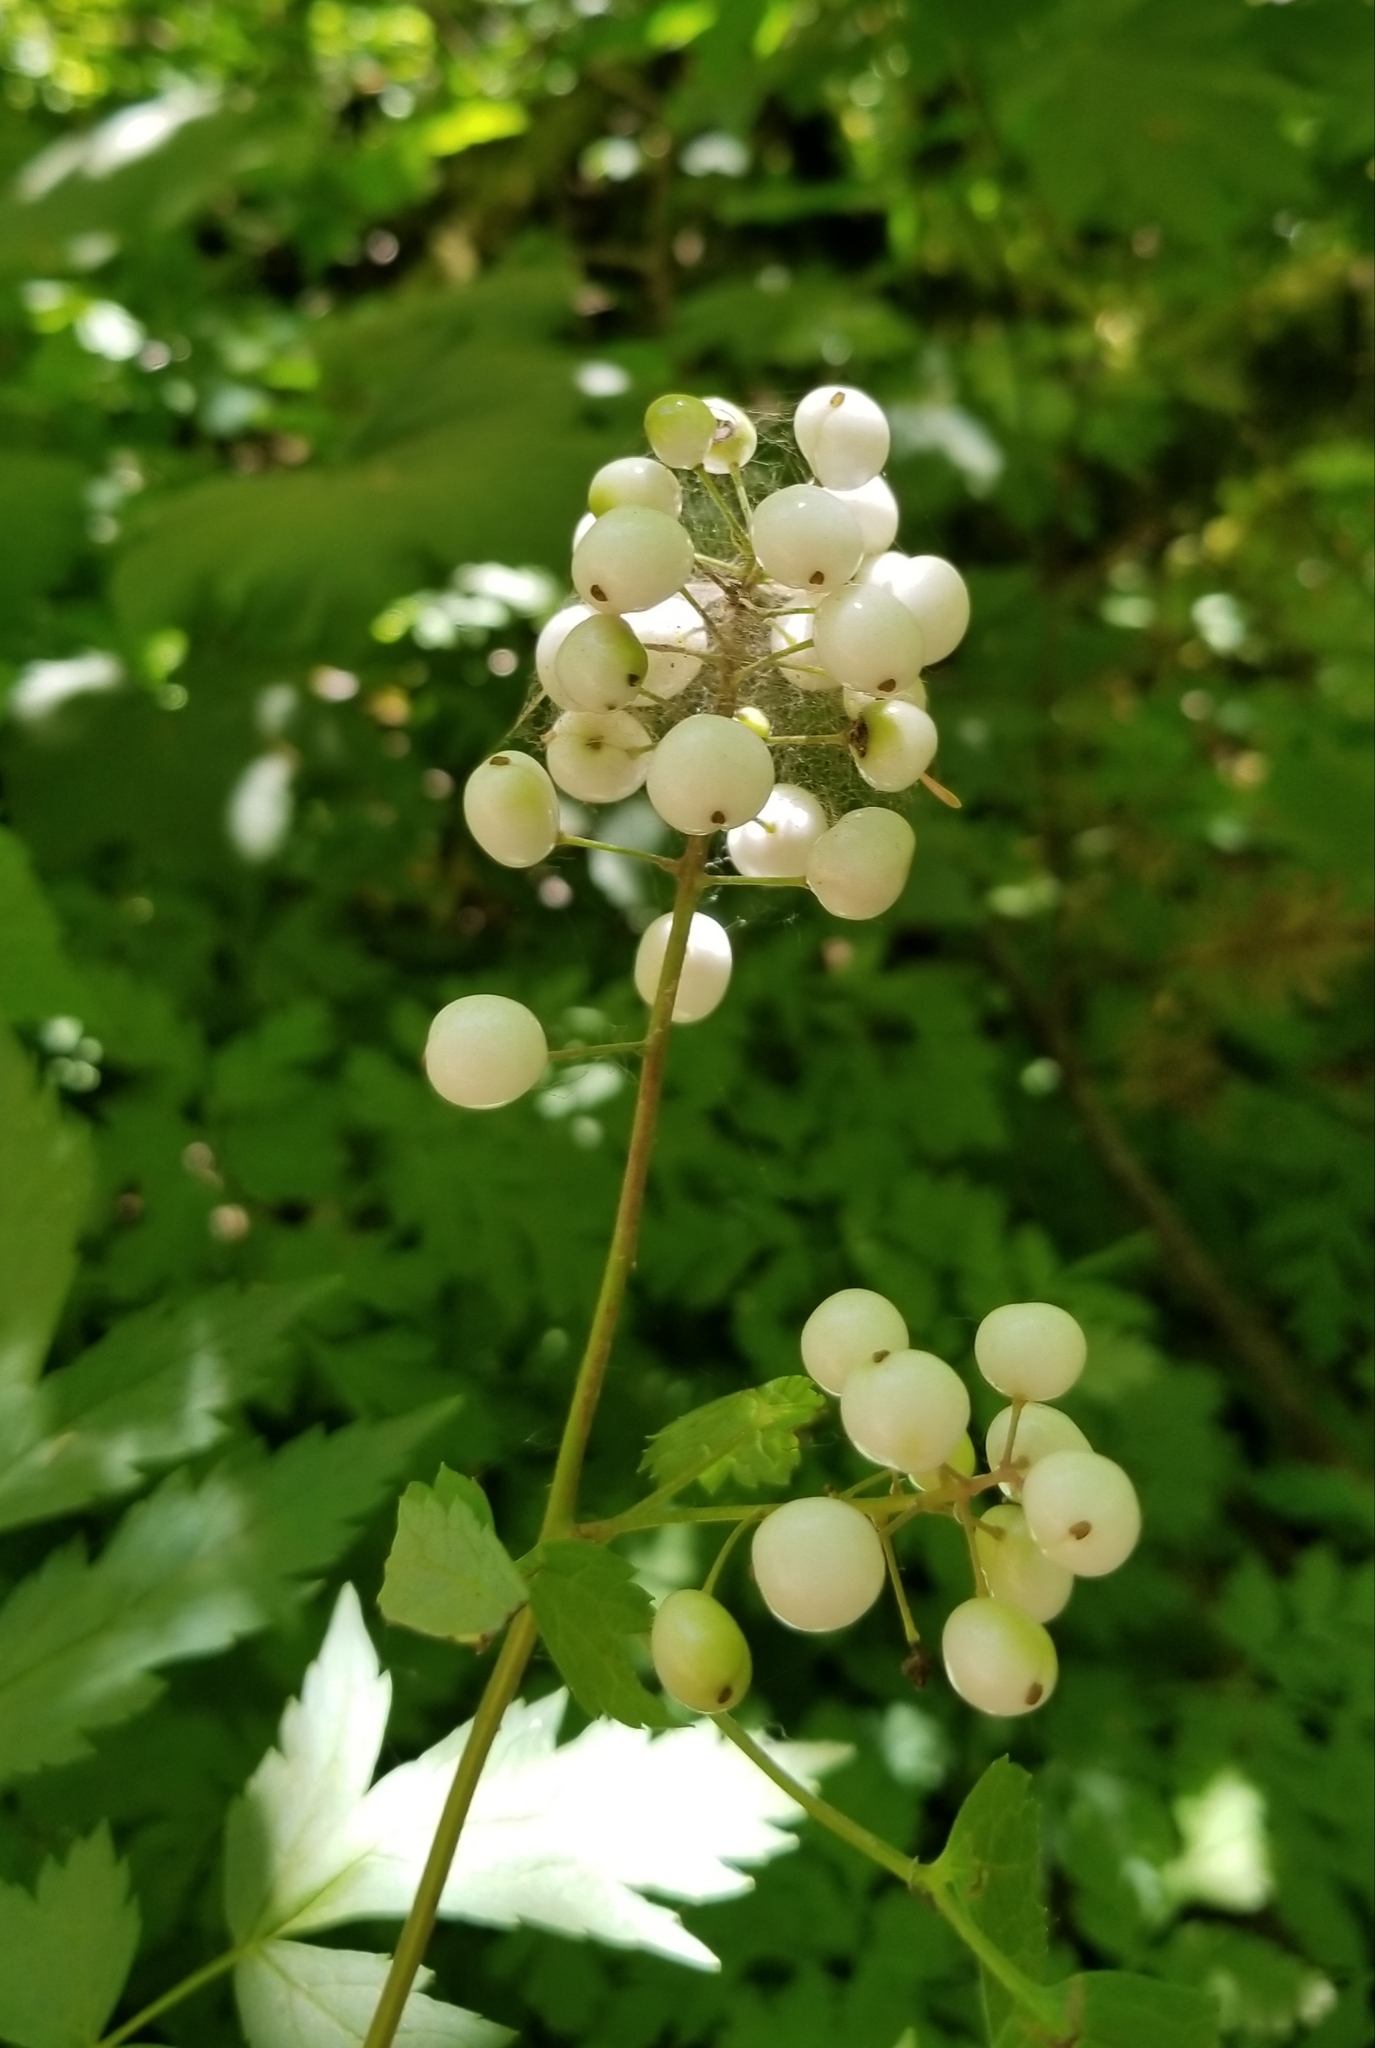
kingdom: Plantae
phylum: Tracheophyta
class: Magnoliopsida
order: Ranunculales
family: Ranunculaceae
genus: Actaea
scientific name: Actaea rubra
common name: Red baneberry
